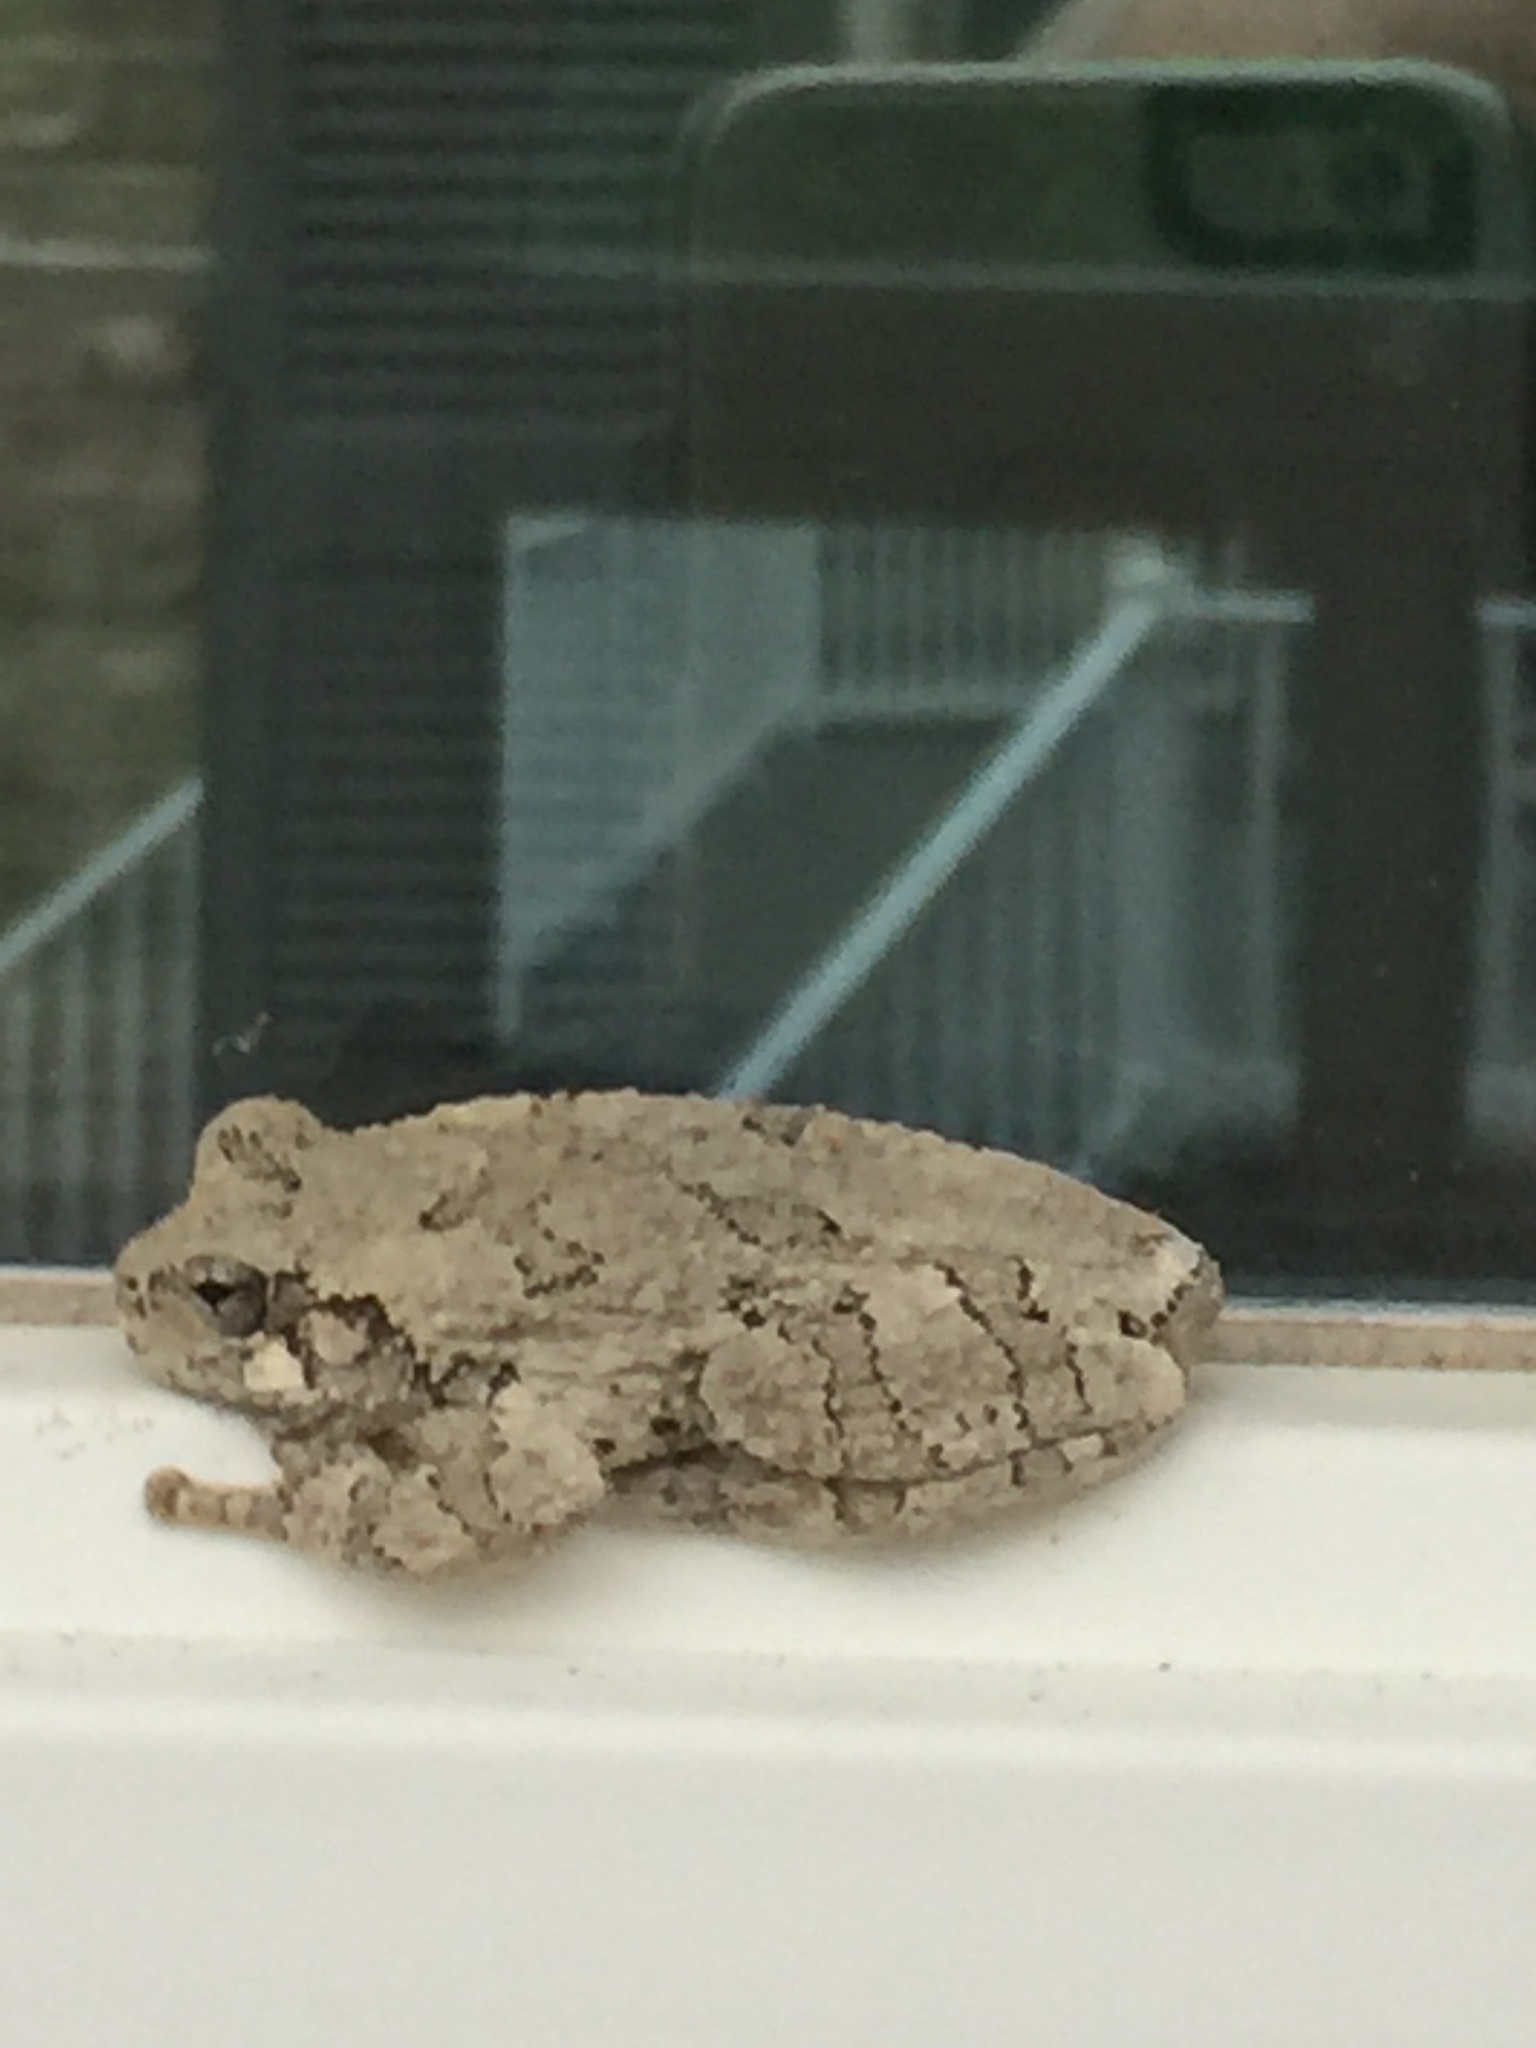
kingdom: Animalia
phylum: Chordata
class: Amphibia
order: Anura
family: Hylidae
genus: Hyla
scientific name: Hyla
